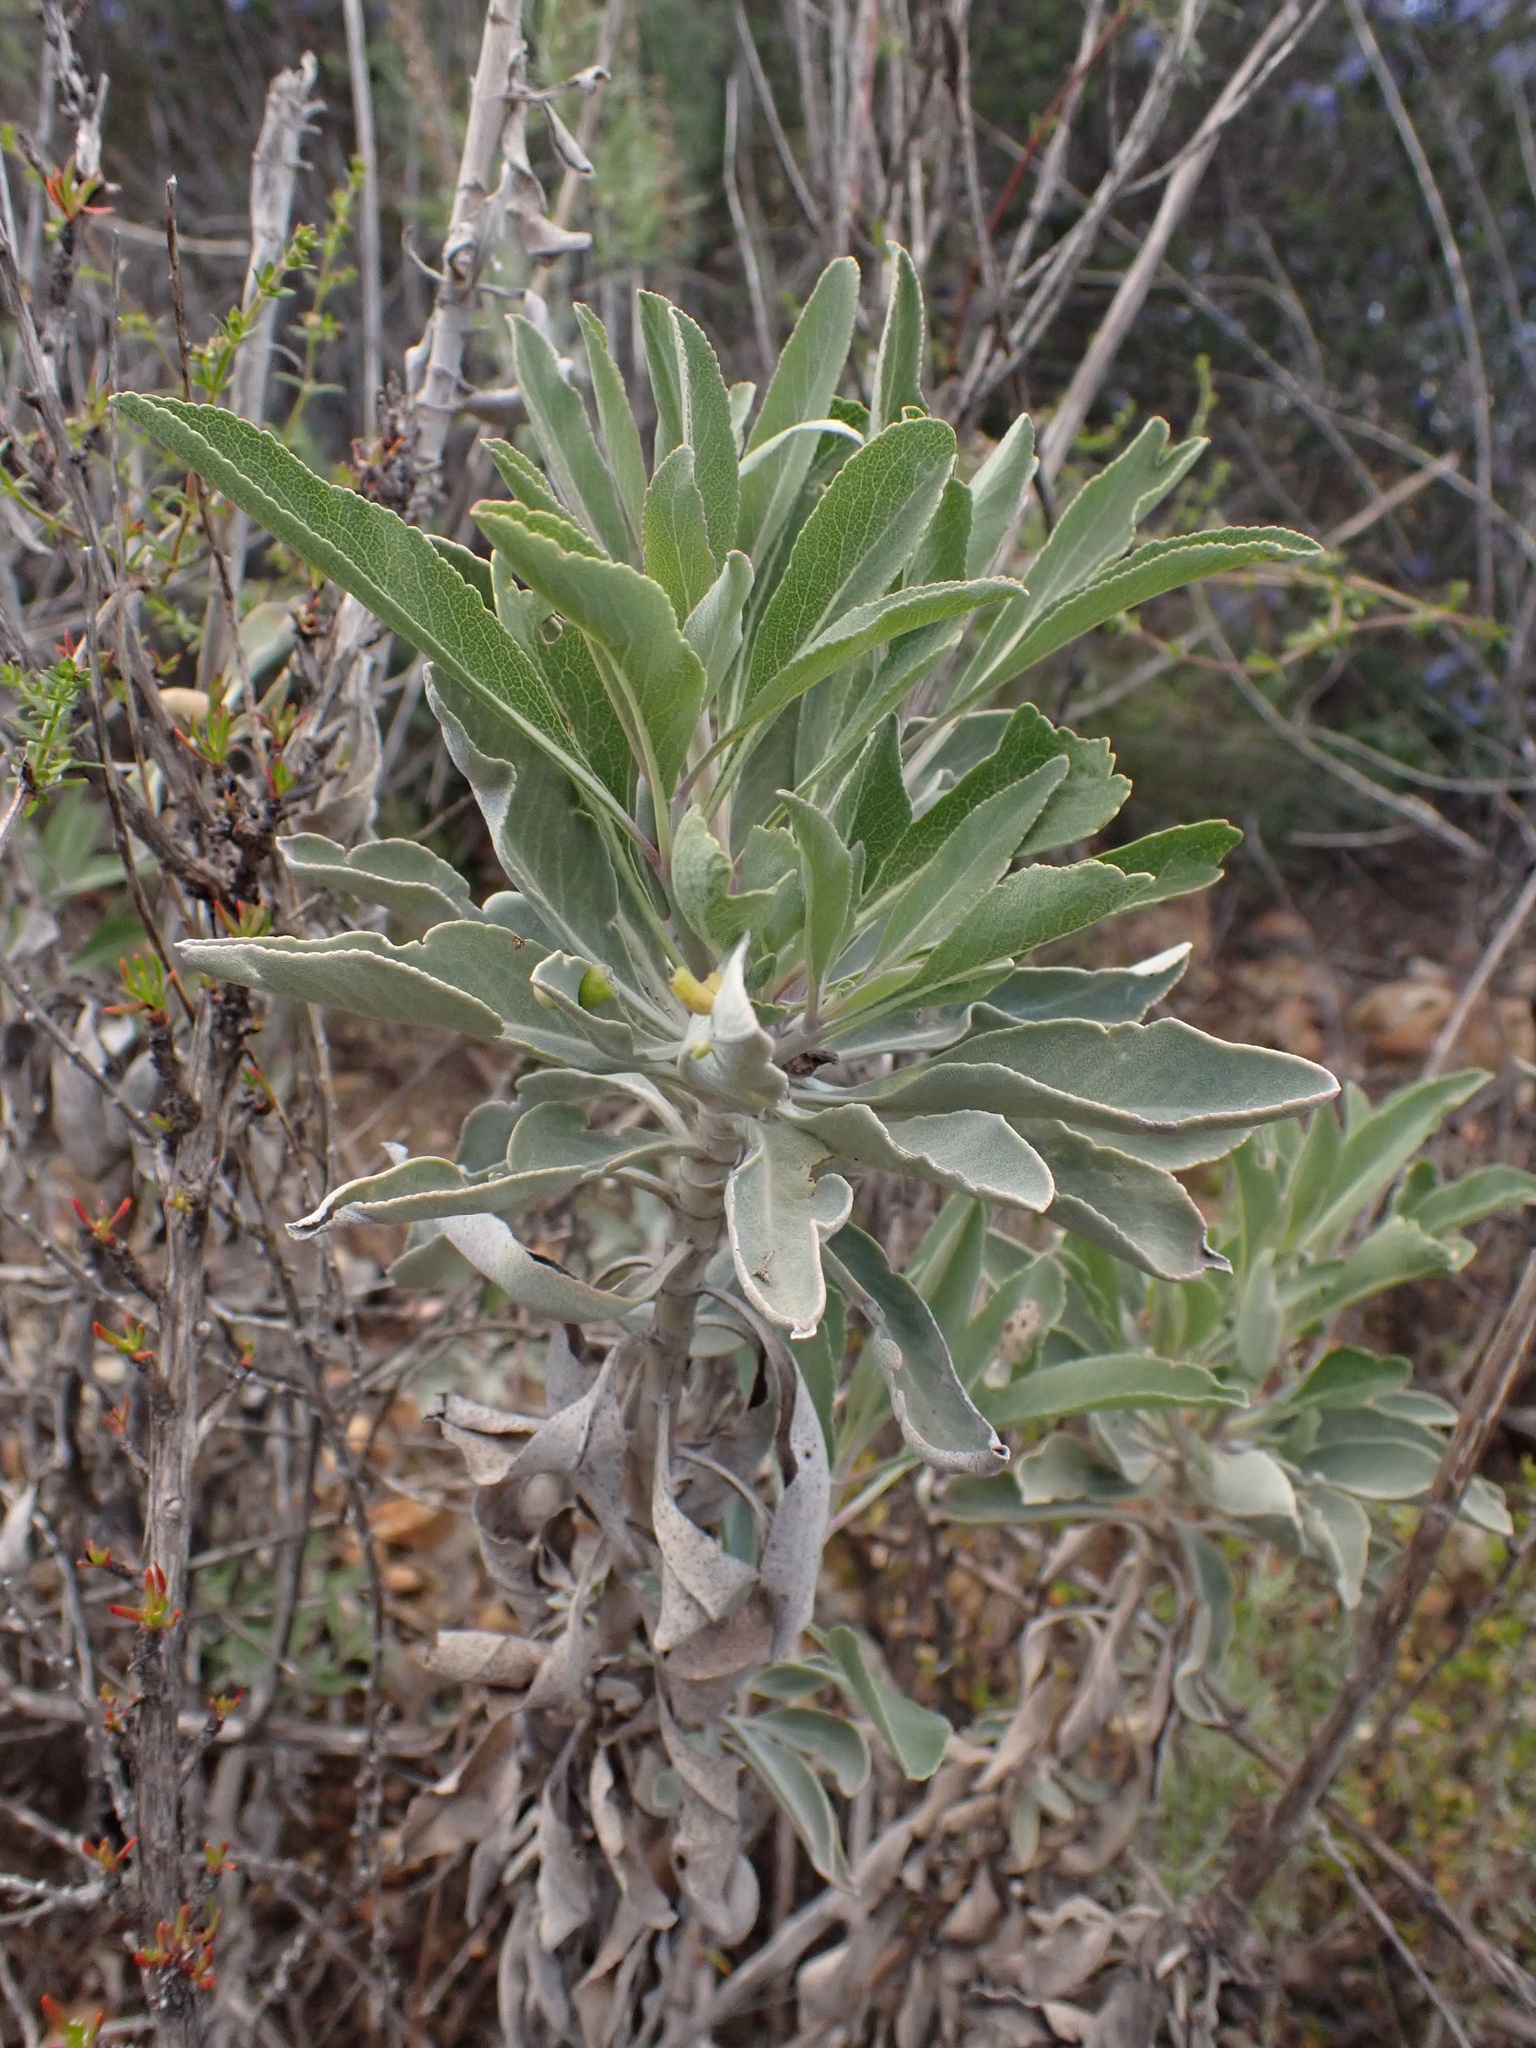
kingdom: Plantae
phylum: Tracheophyta
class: Magnoliopsida
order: Lamiales
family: Lamiaceae
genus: Salvia
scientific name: Salvia apiana
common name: White sage
